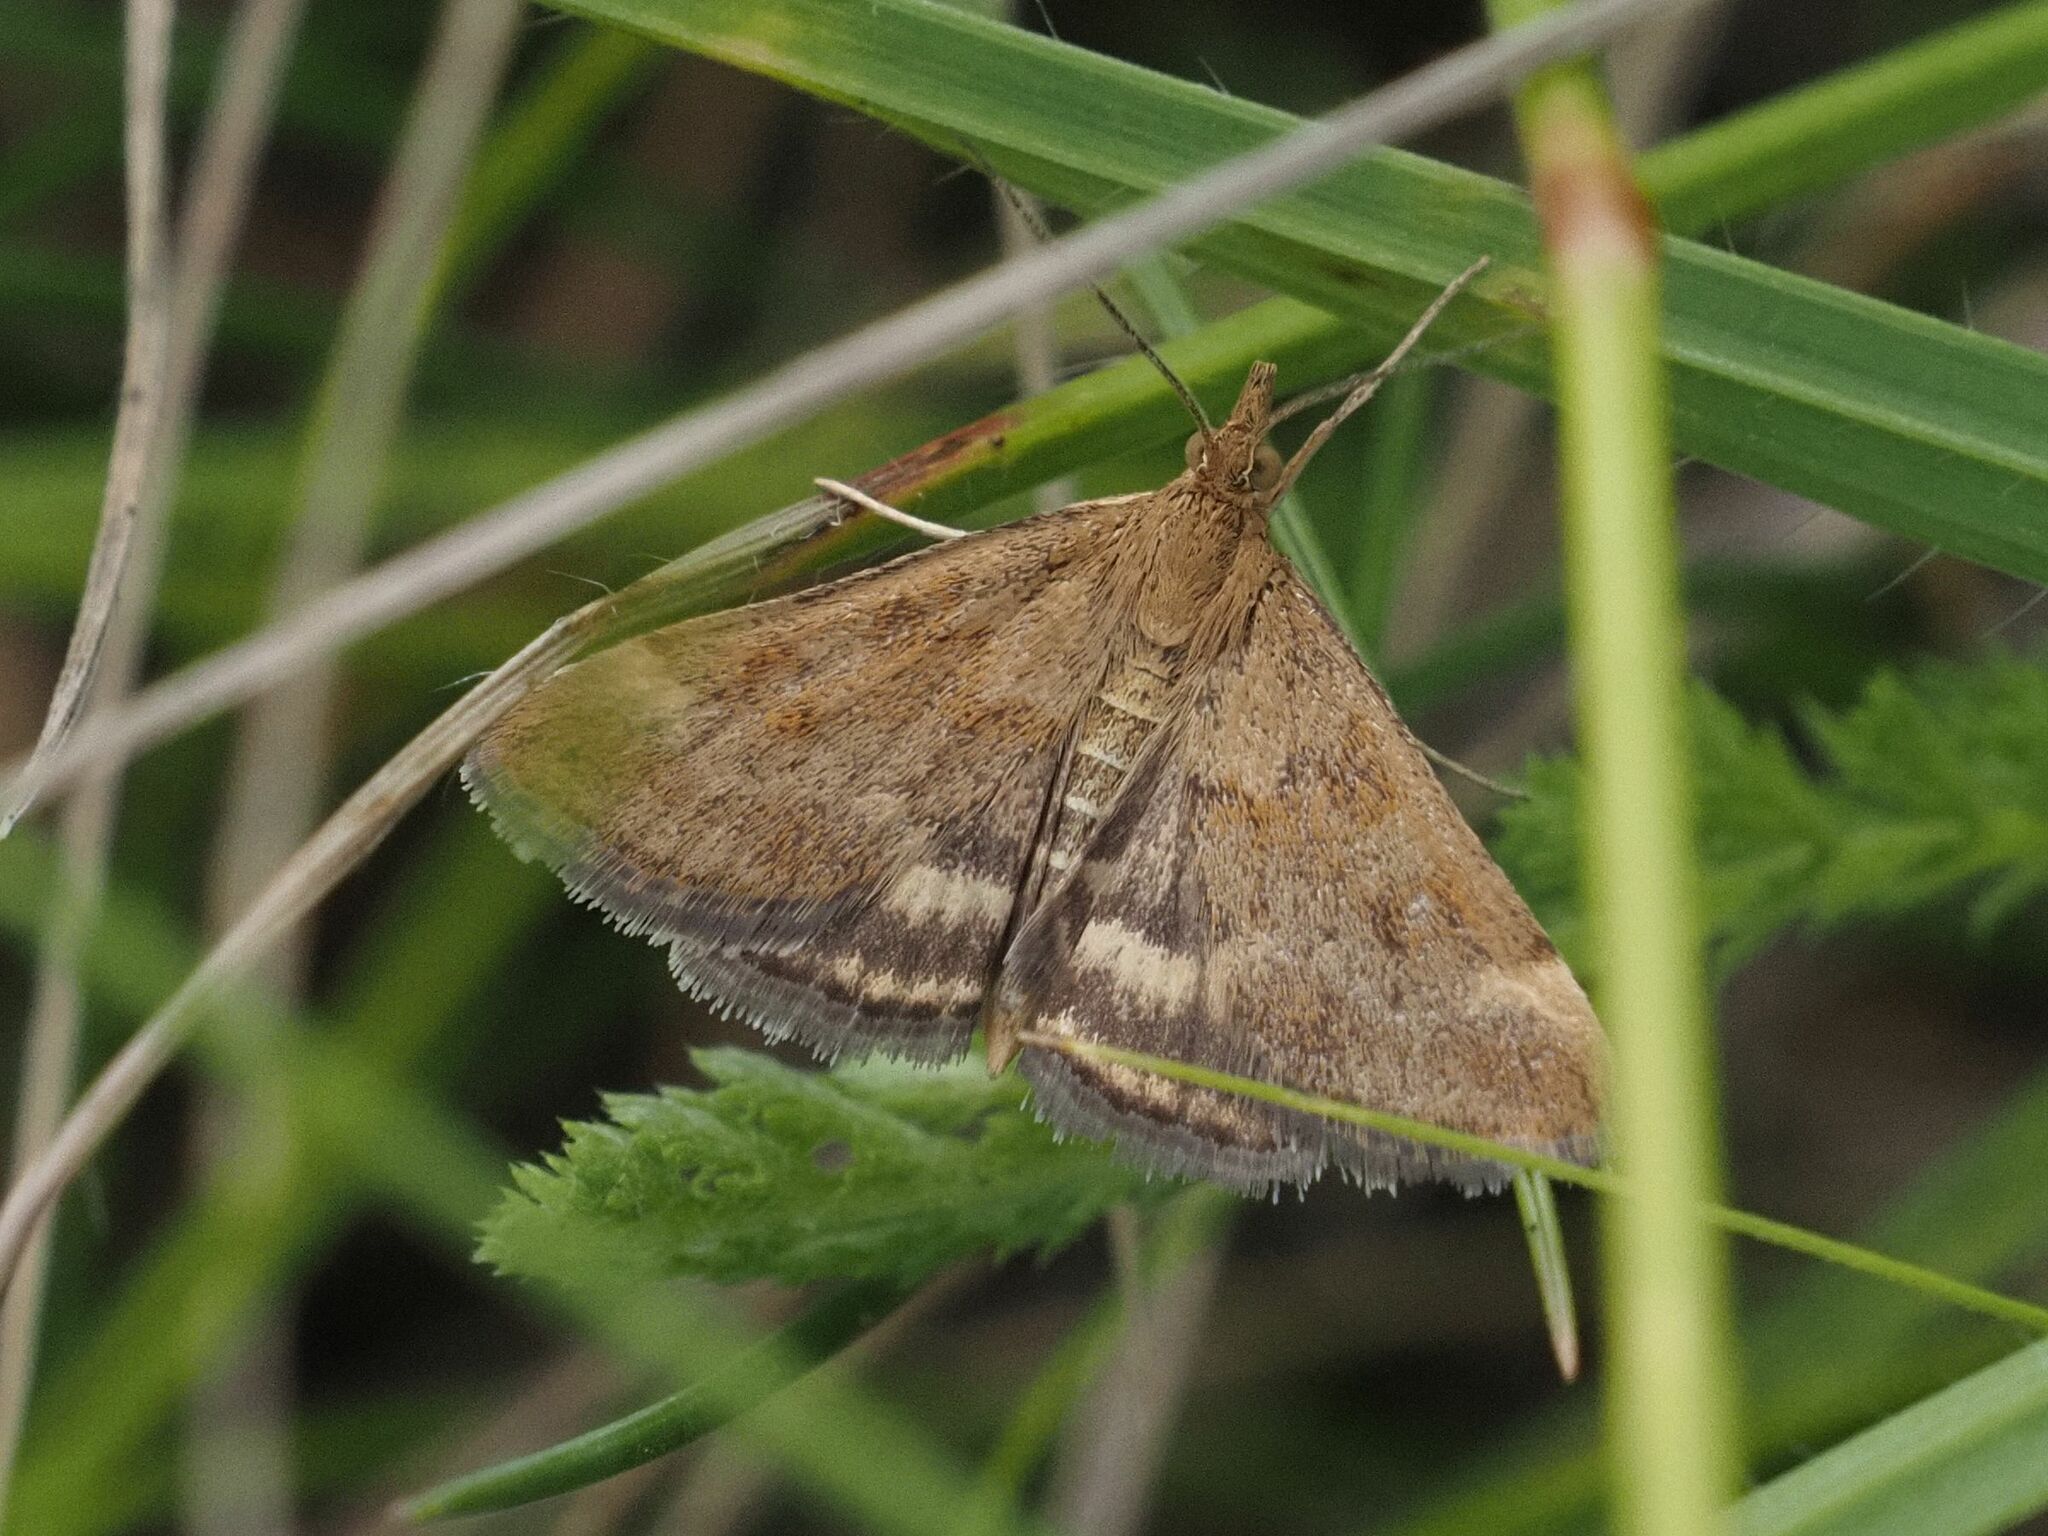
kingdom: Animalia
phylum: Arthropoda
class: Insecta
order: Lepidoptera
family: Crambidae
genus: Pyrausta
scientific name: Pyrausta despicata
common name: Straw-barred pearl
